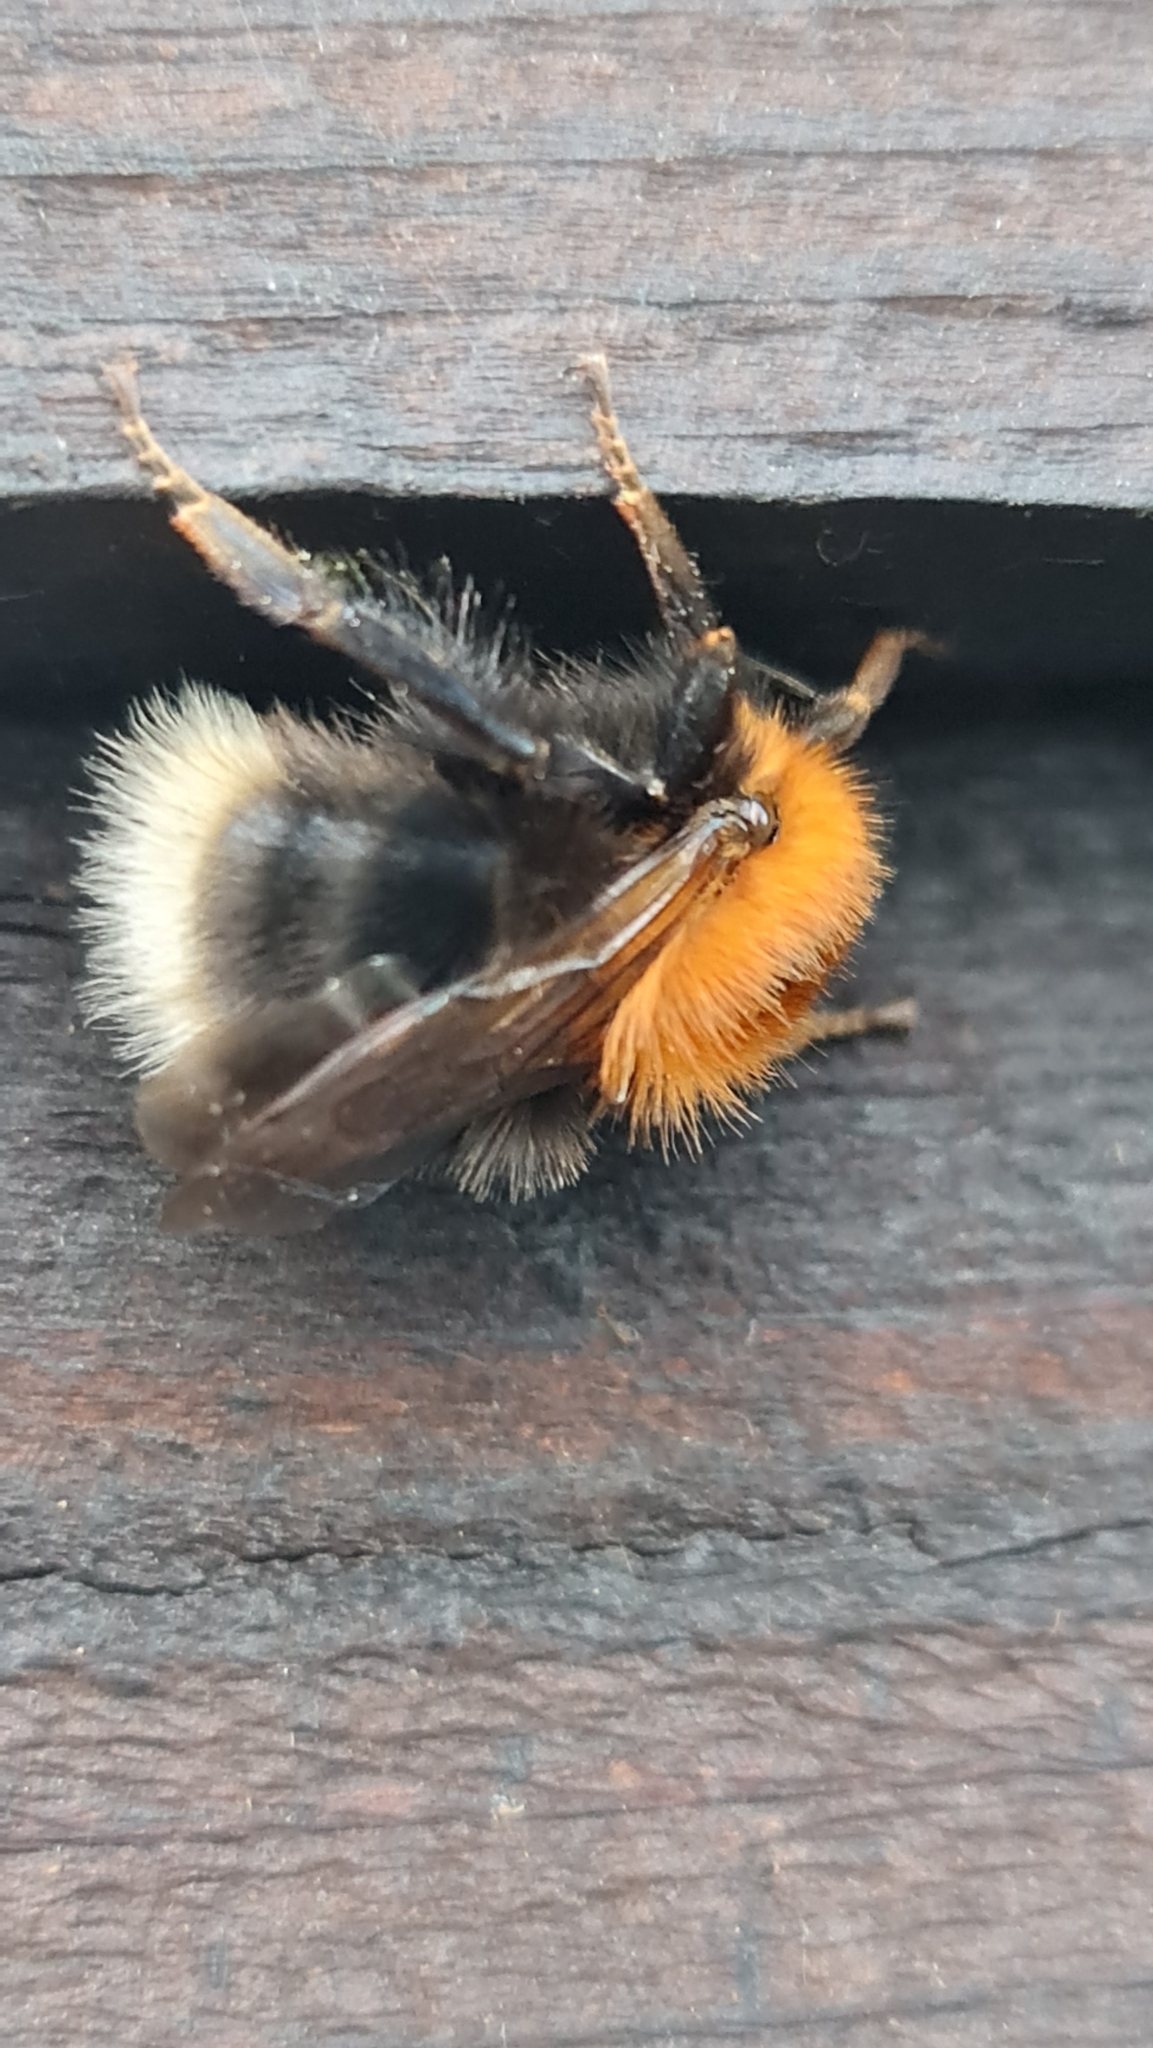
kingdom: Animalia
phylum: Arthropoda
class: Insecta
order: Hymenoptera
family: Apidae
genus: Bombus
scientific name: Bombus hypnorum
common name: New garden bumblebee
